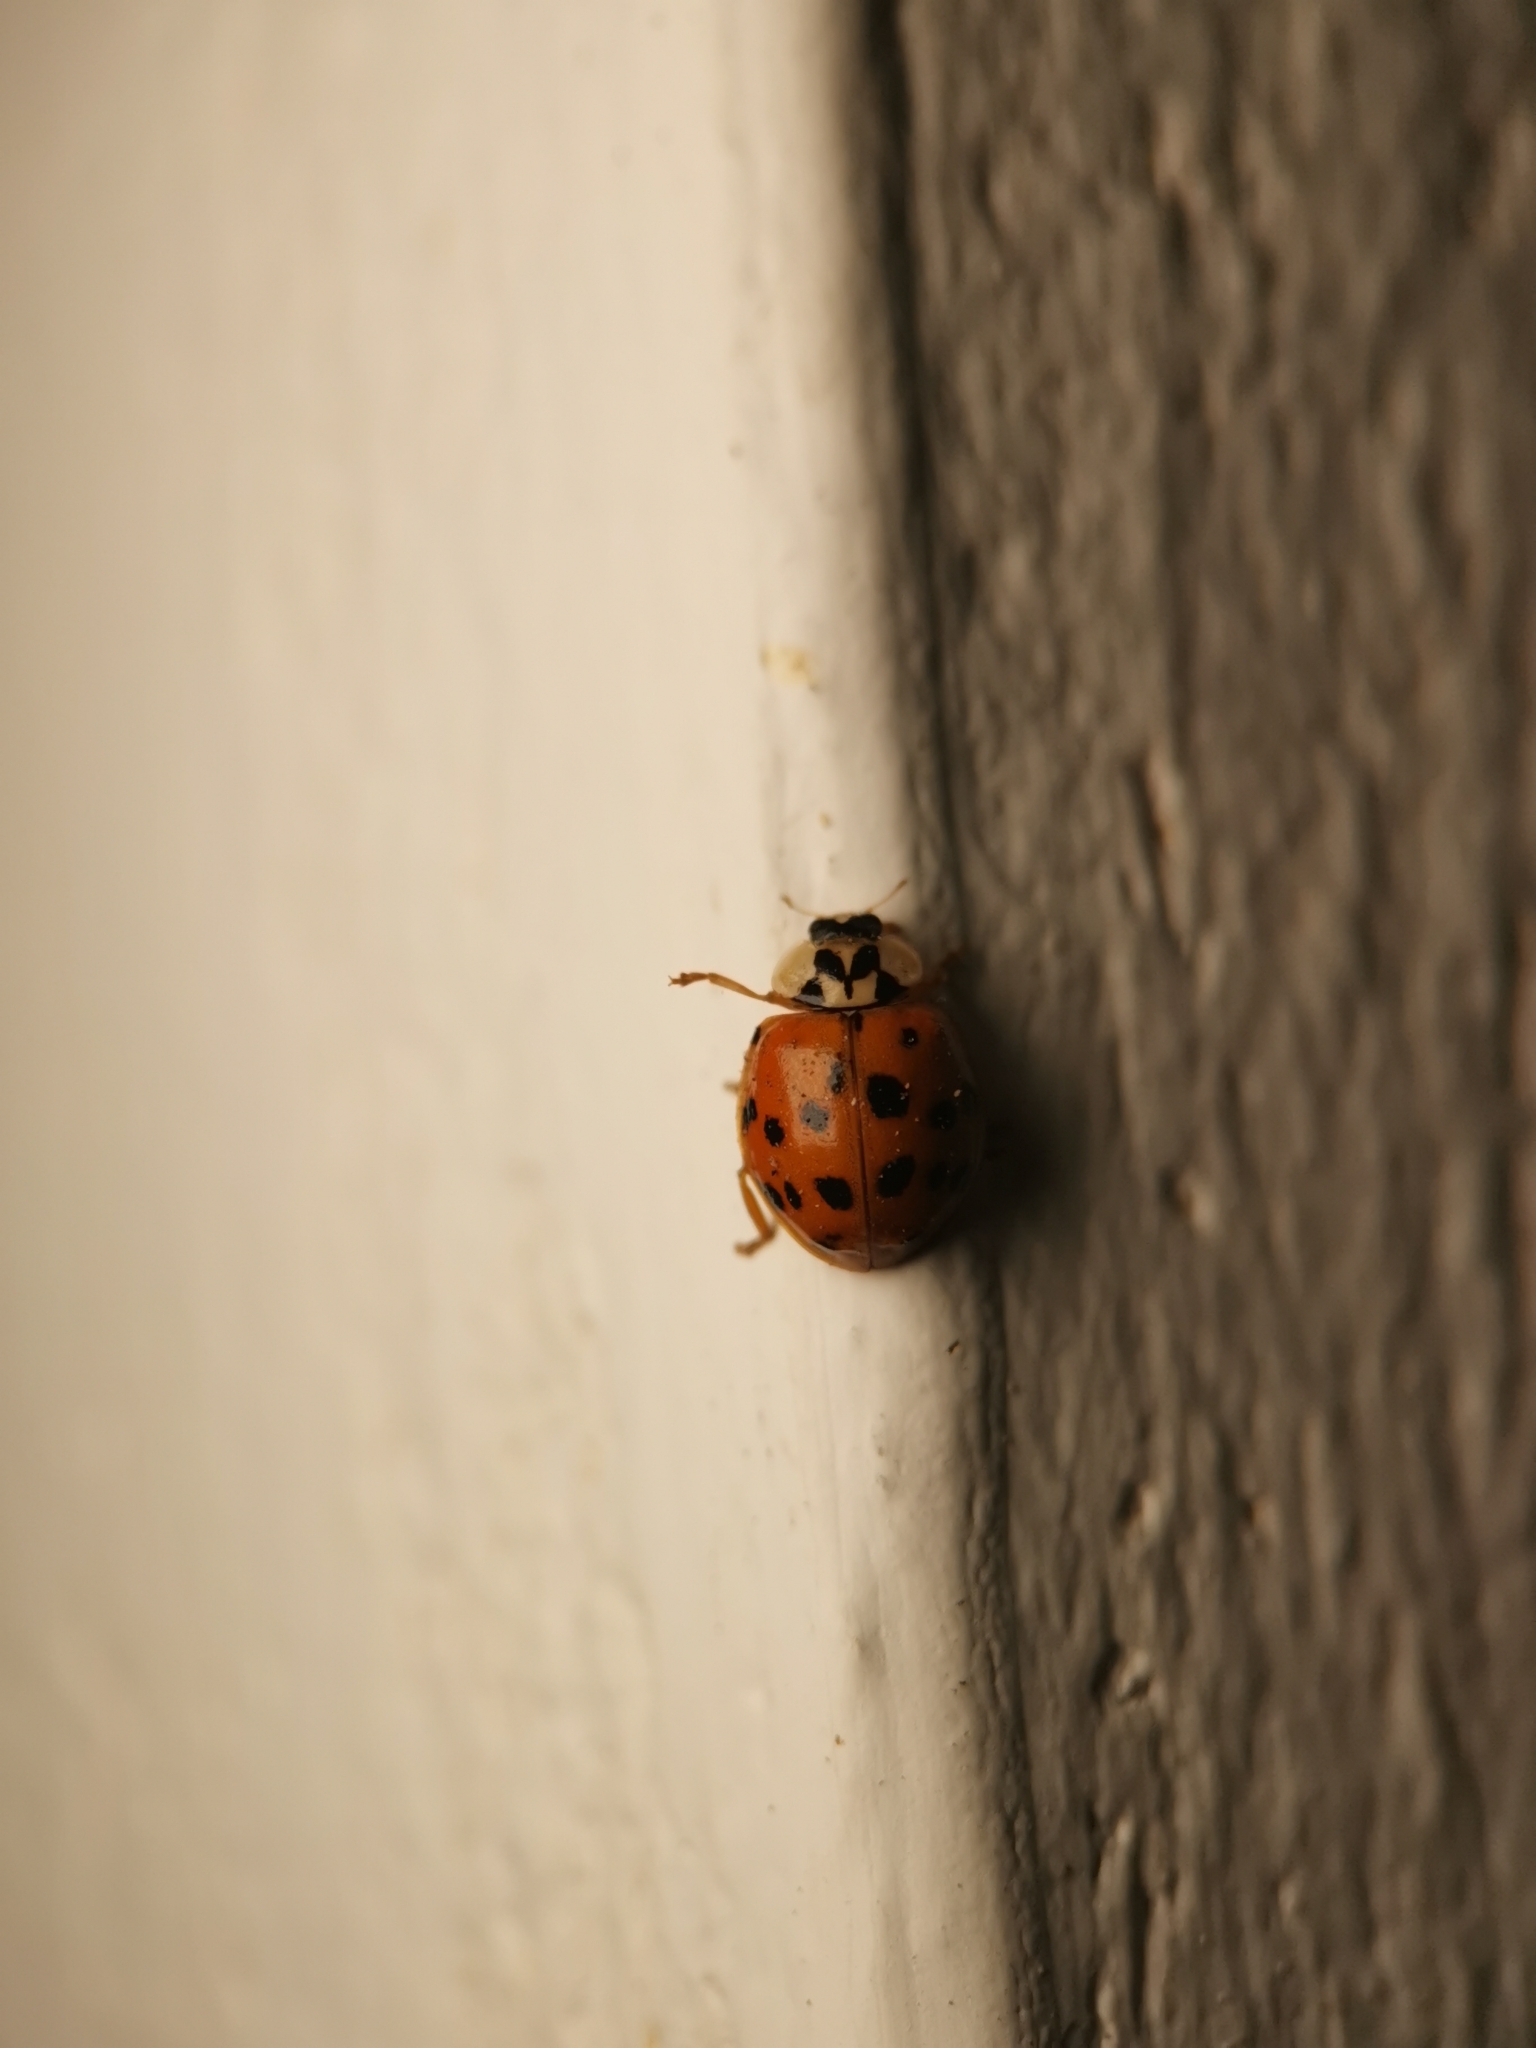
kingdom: Animalia
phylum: Arthropoda
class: Insecta
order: Coleoptera
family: Coccinellidae
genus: Harmonia
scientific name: Harmonia axyridis
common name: Harlequin ladybird
